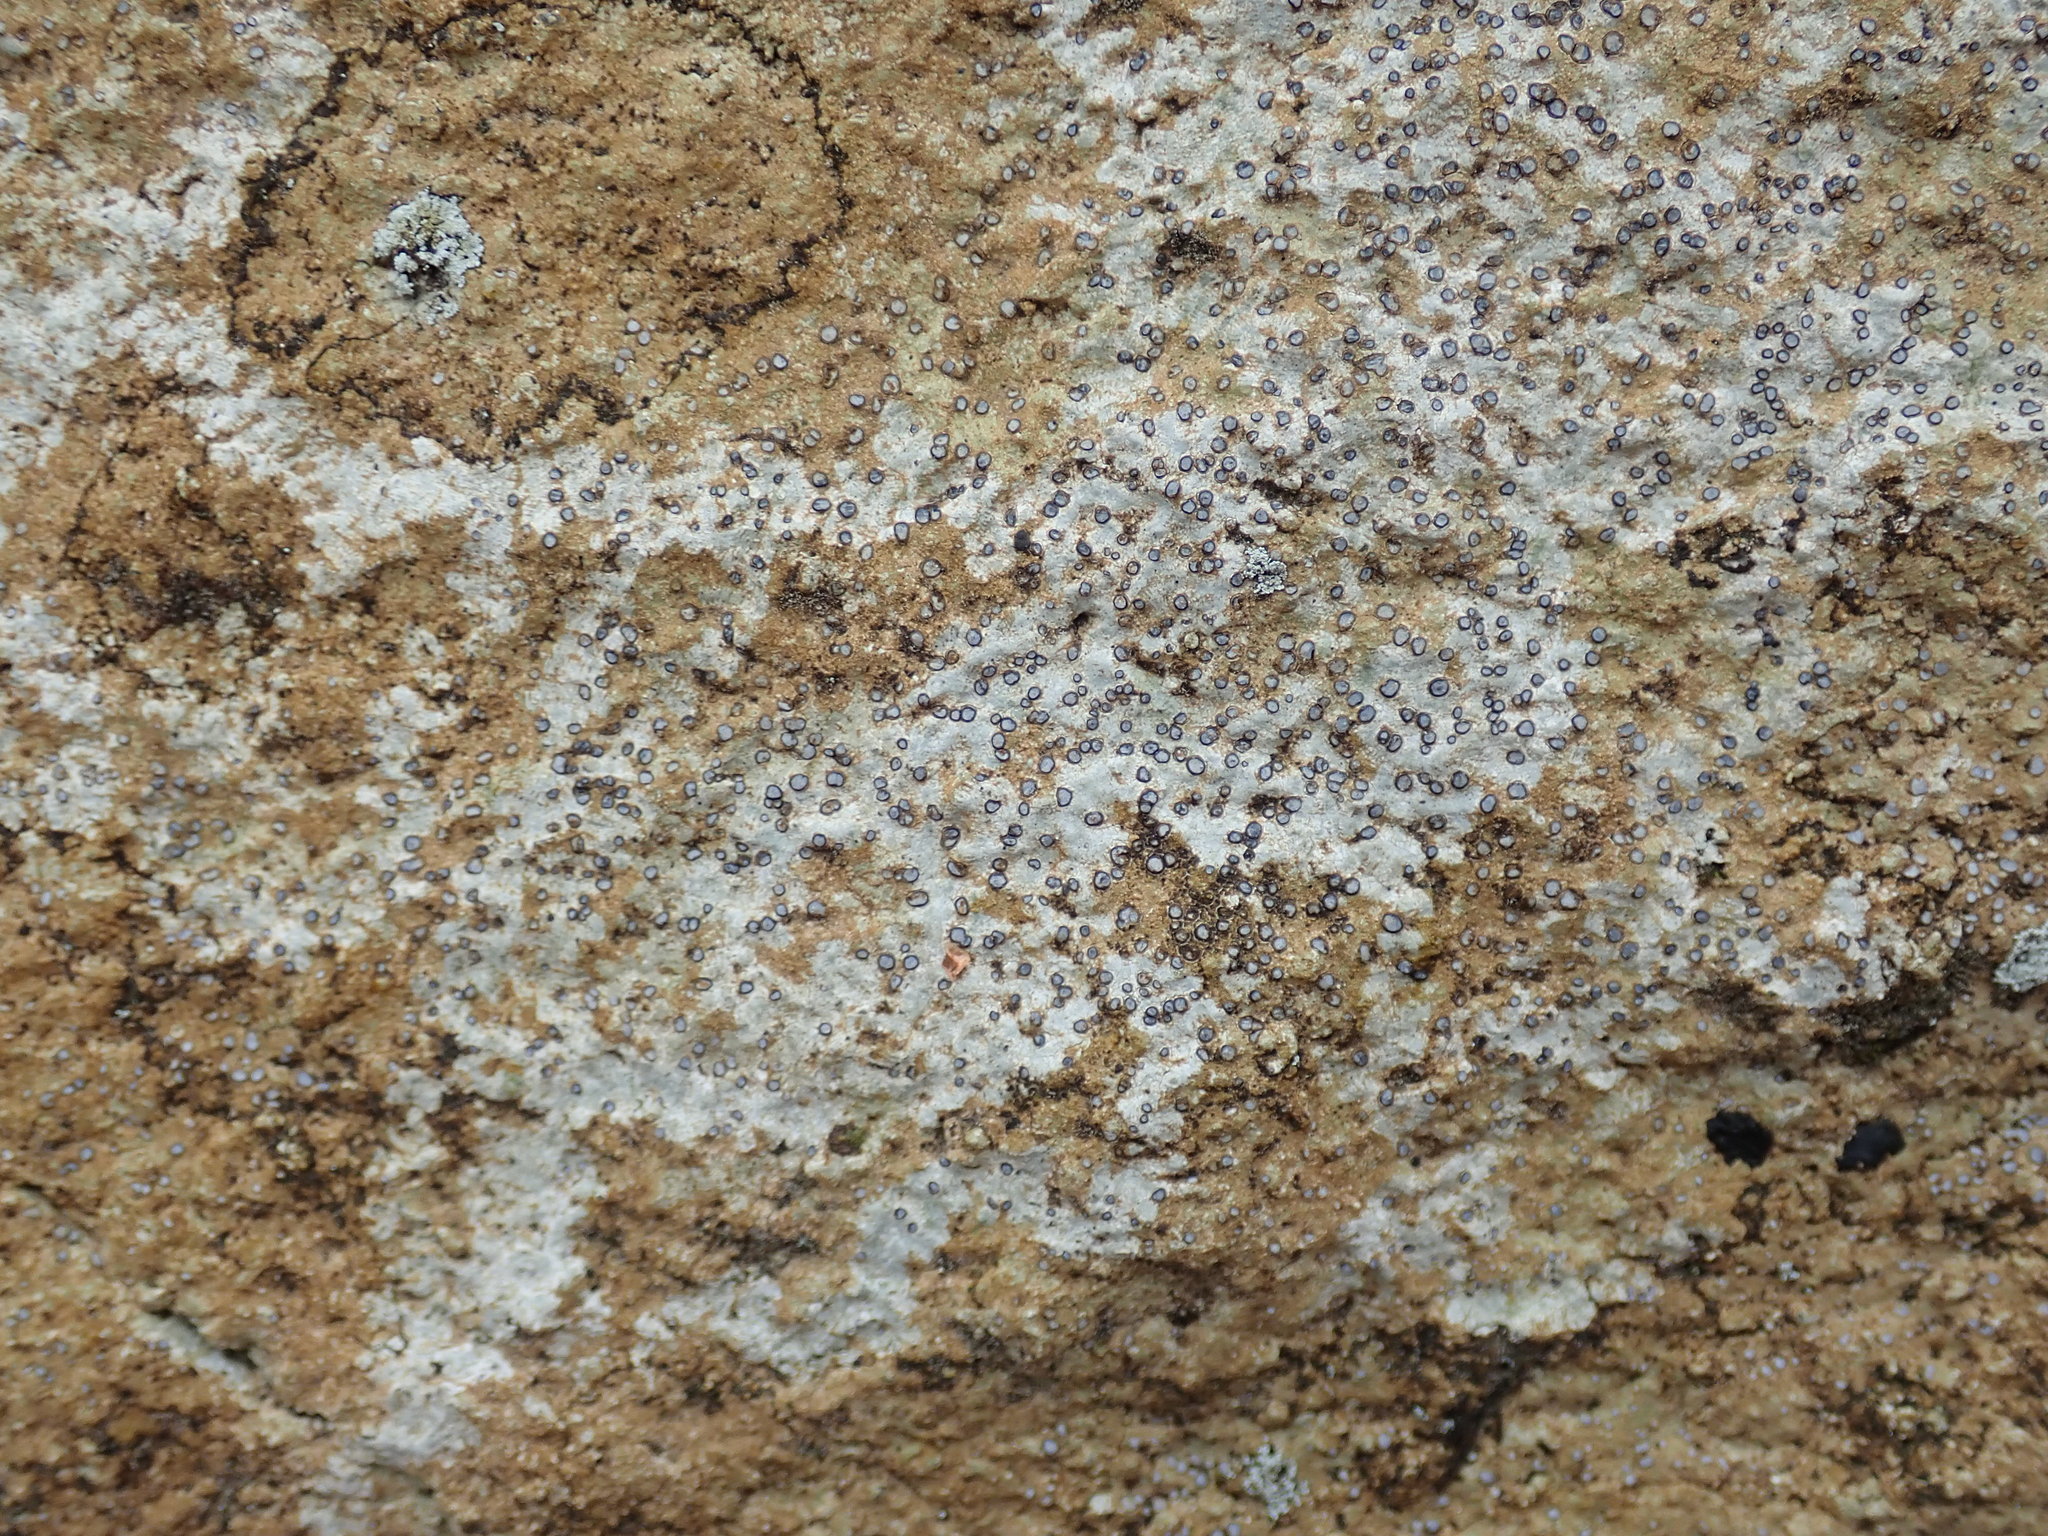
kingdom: Fungi
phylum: Ascomycota
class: Lecanoromycetes
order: Lecideales
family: Lecideaceae
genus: Porpidia
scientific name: Porpidia albocaerulescens
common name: Smokey-eyed boulder lichen
